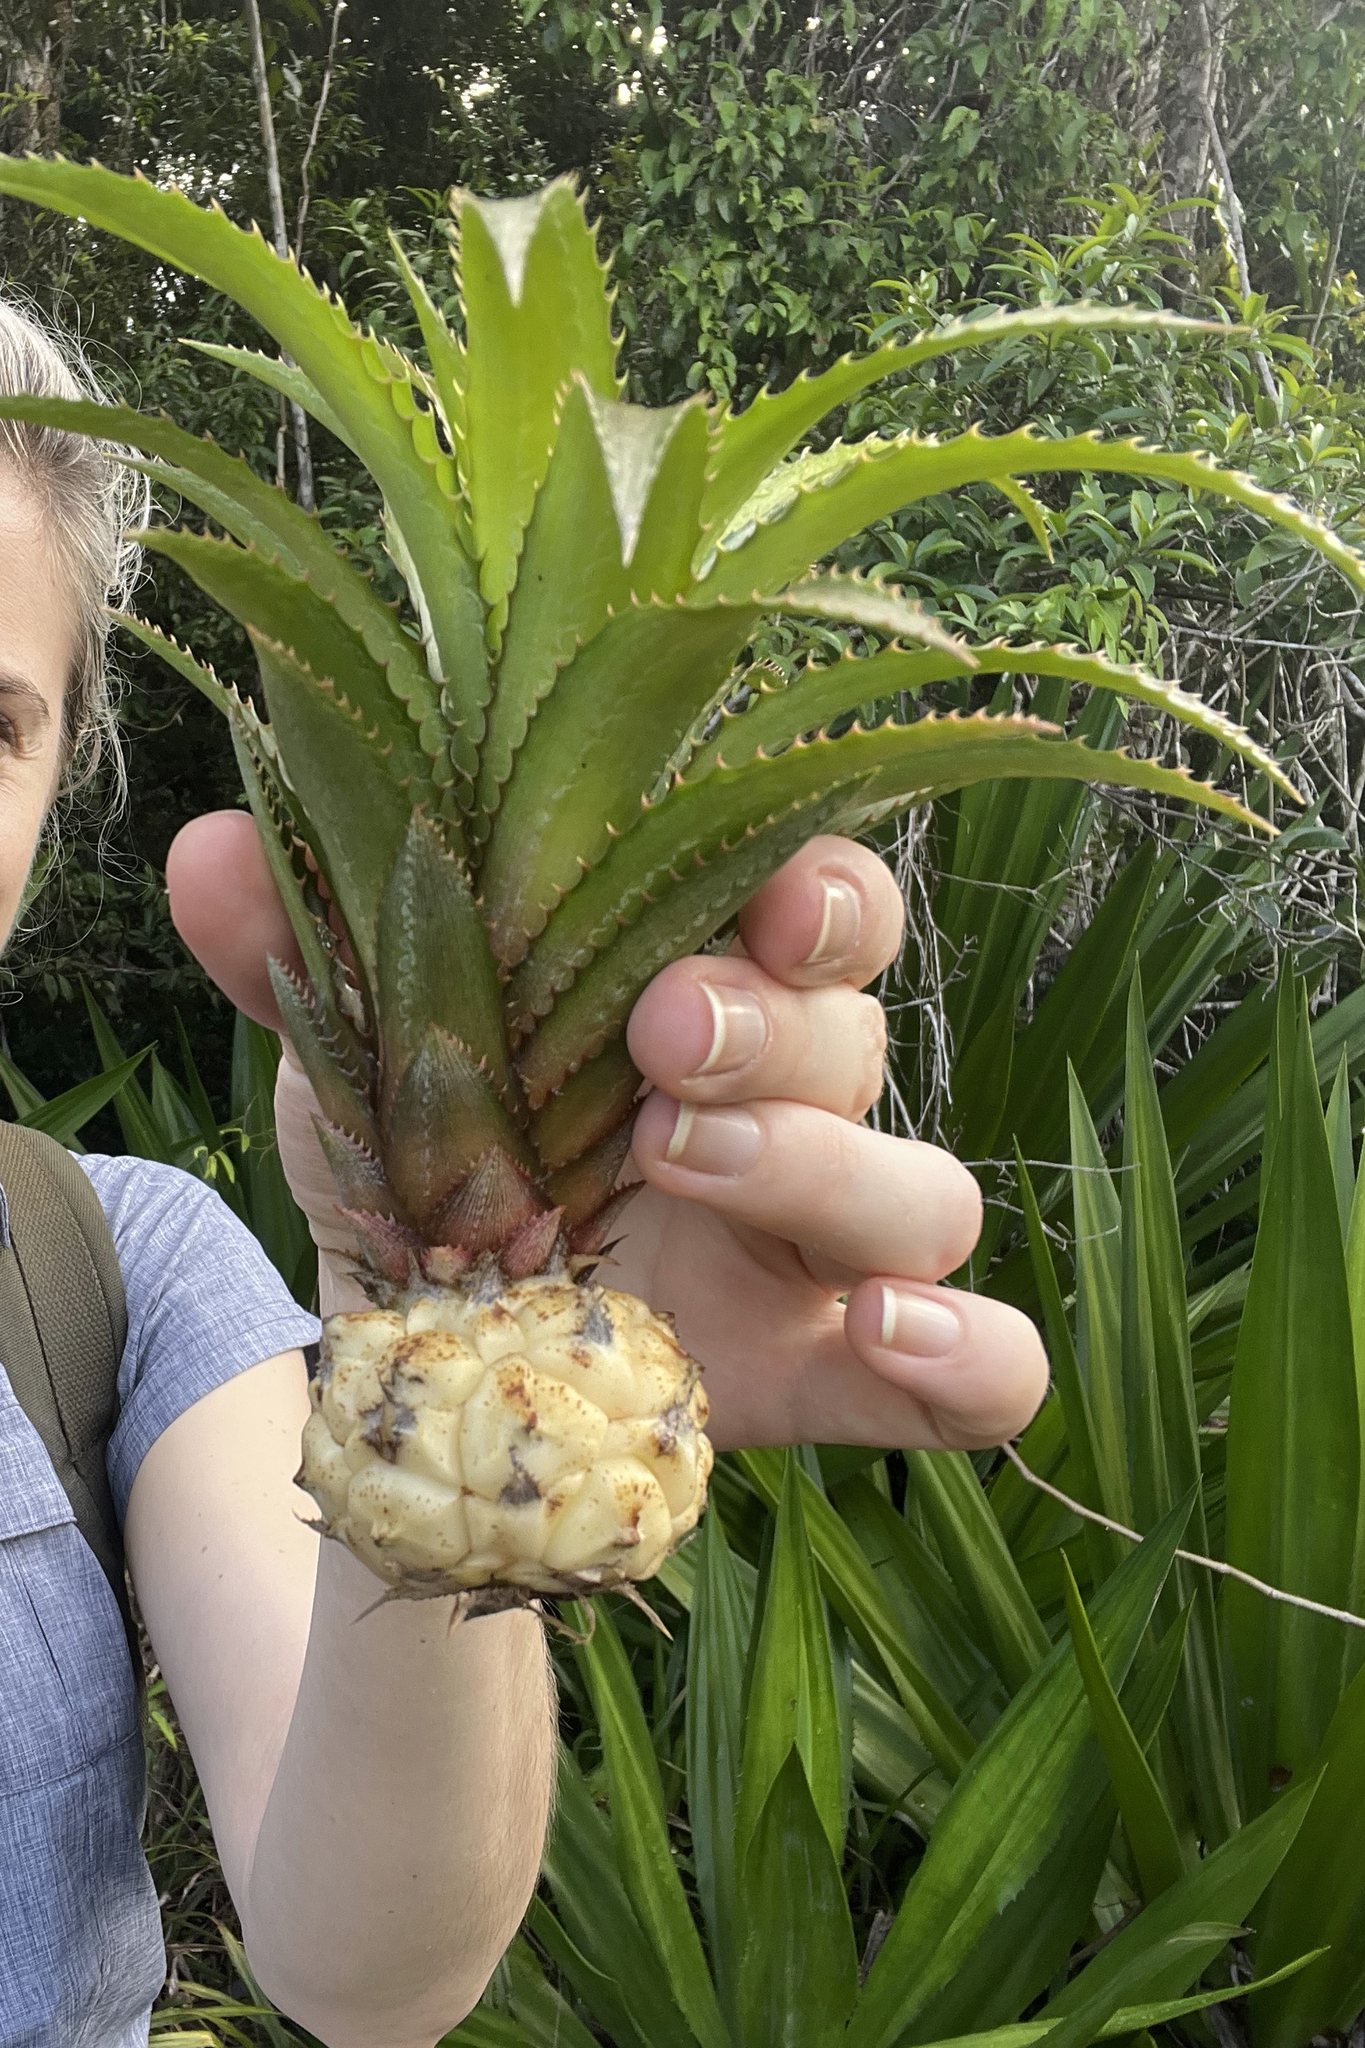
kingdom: Plantae
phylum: Tracheophyta
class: Liliopsida
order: Poales
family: Bromeliaceae
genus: Ananas
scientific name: Ananas comosus
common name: Pineapple
